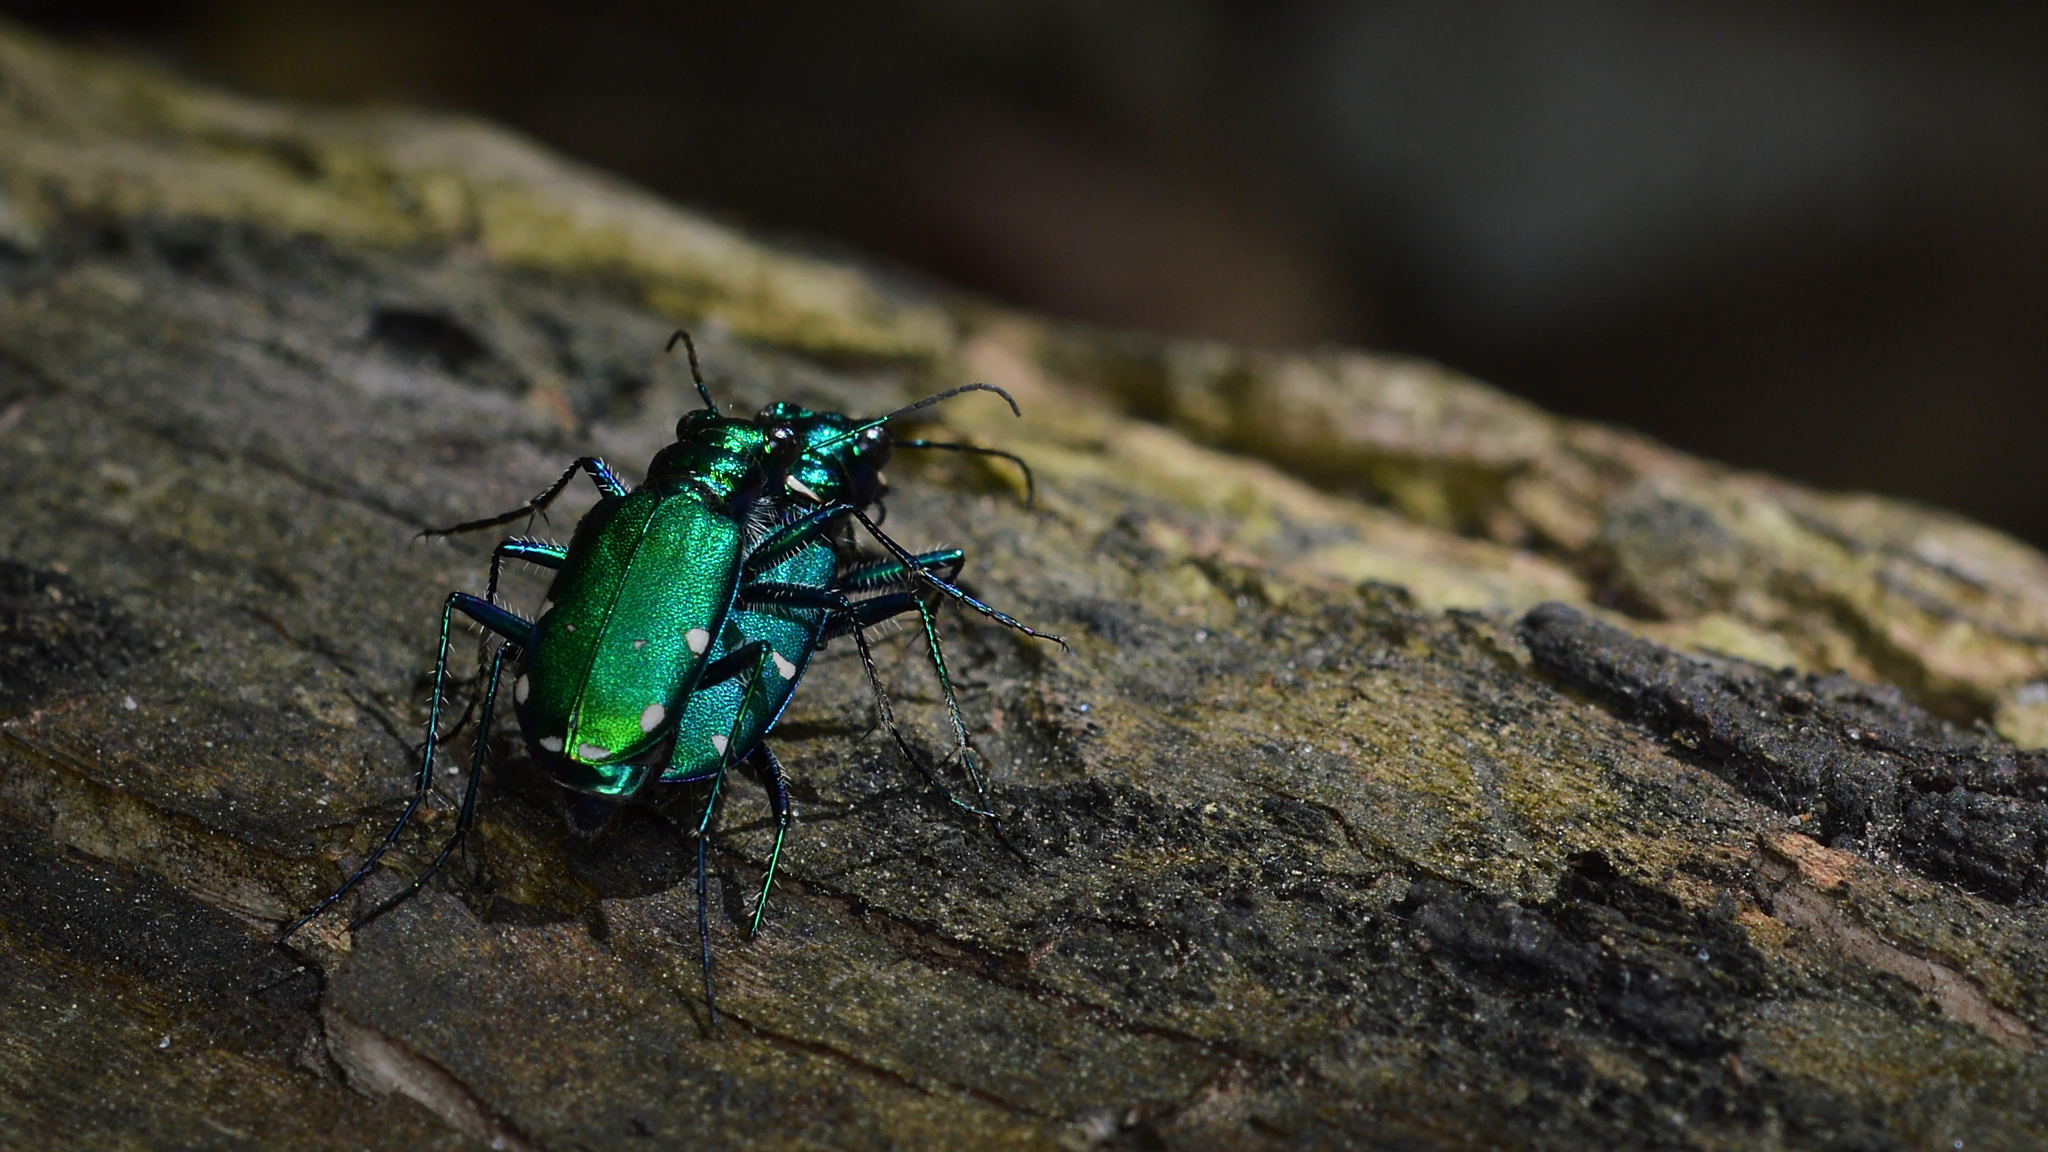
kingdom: Animalia
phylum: Arthropoda
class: Insecta
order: Coleoptera
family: Carabidae
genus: Cicindela
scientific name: Cicindela sexguttata
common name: Six-spotted tiger beetle
